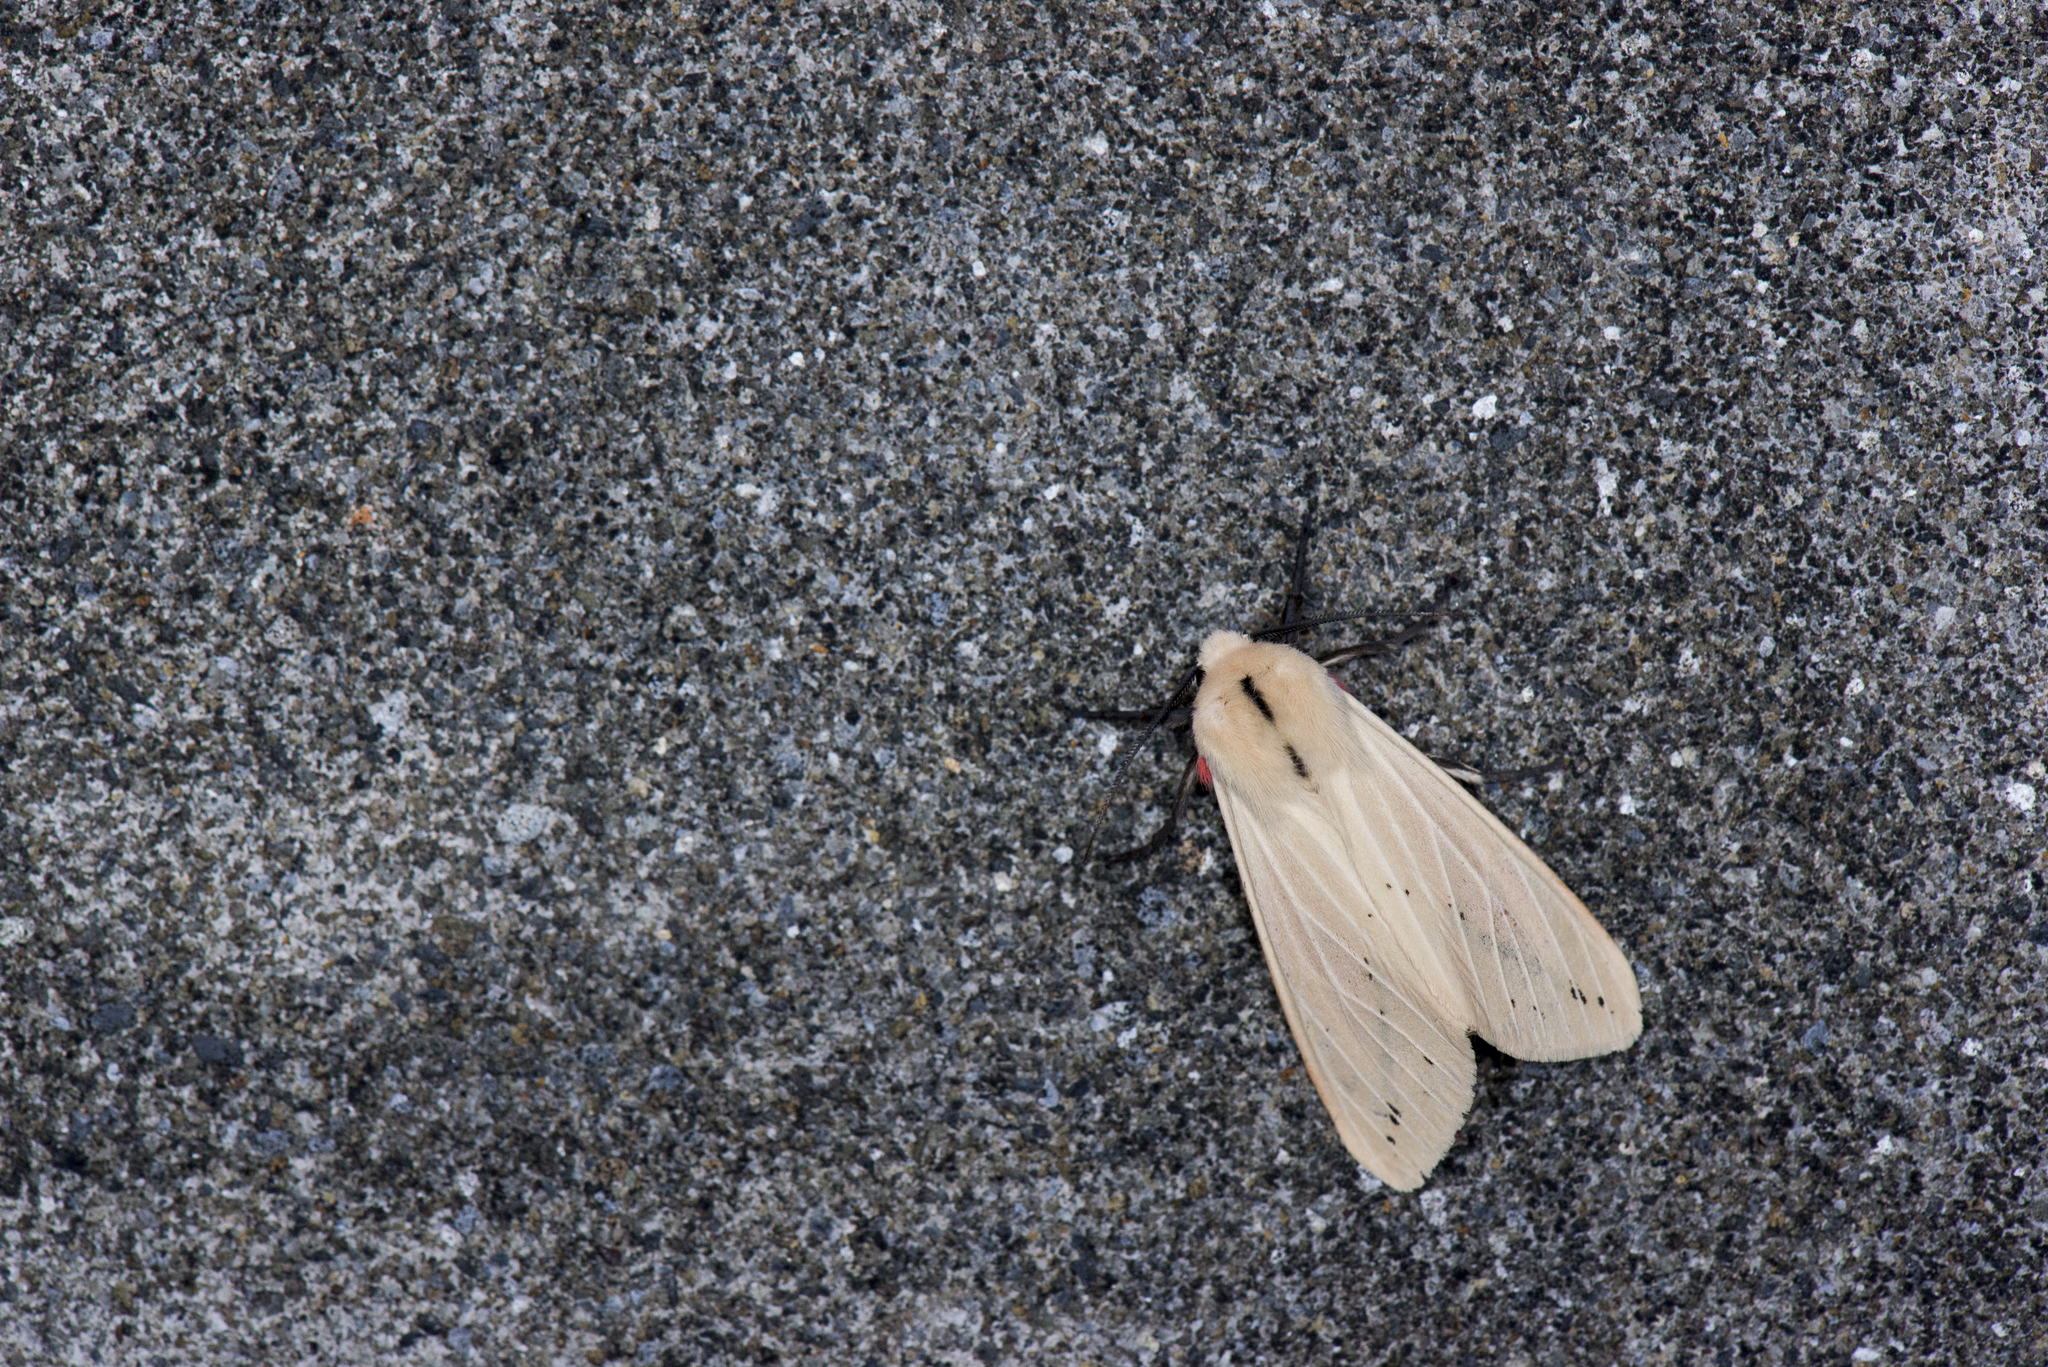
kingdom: Animalia
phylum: Arthropoda
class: Insecta
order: Lepidoptera
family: Erebidae
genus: Spilarctia
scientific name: Spilarctia taiwanensis
